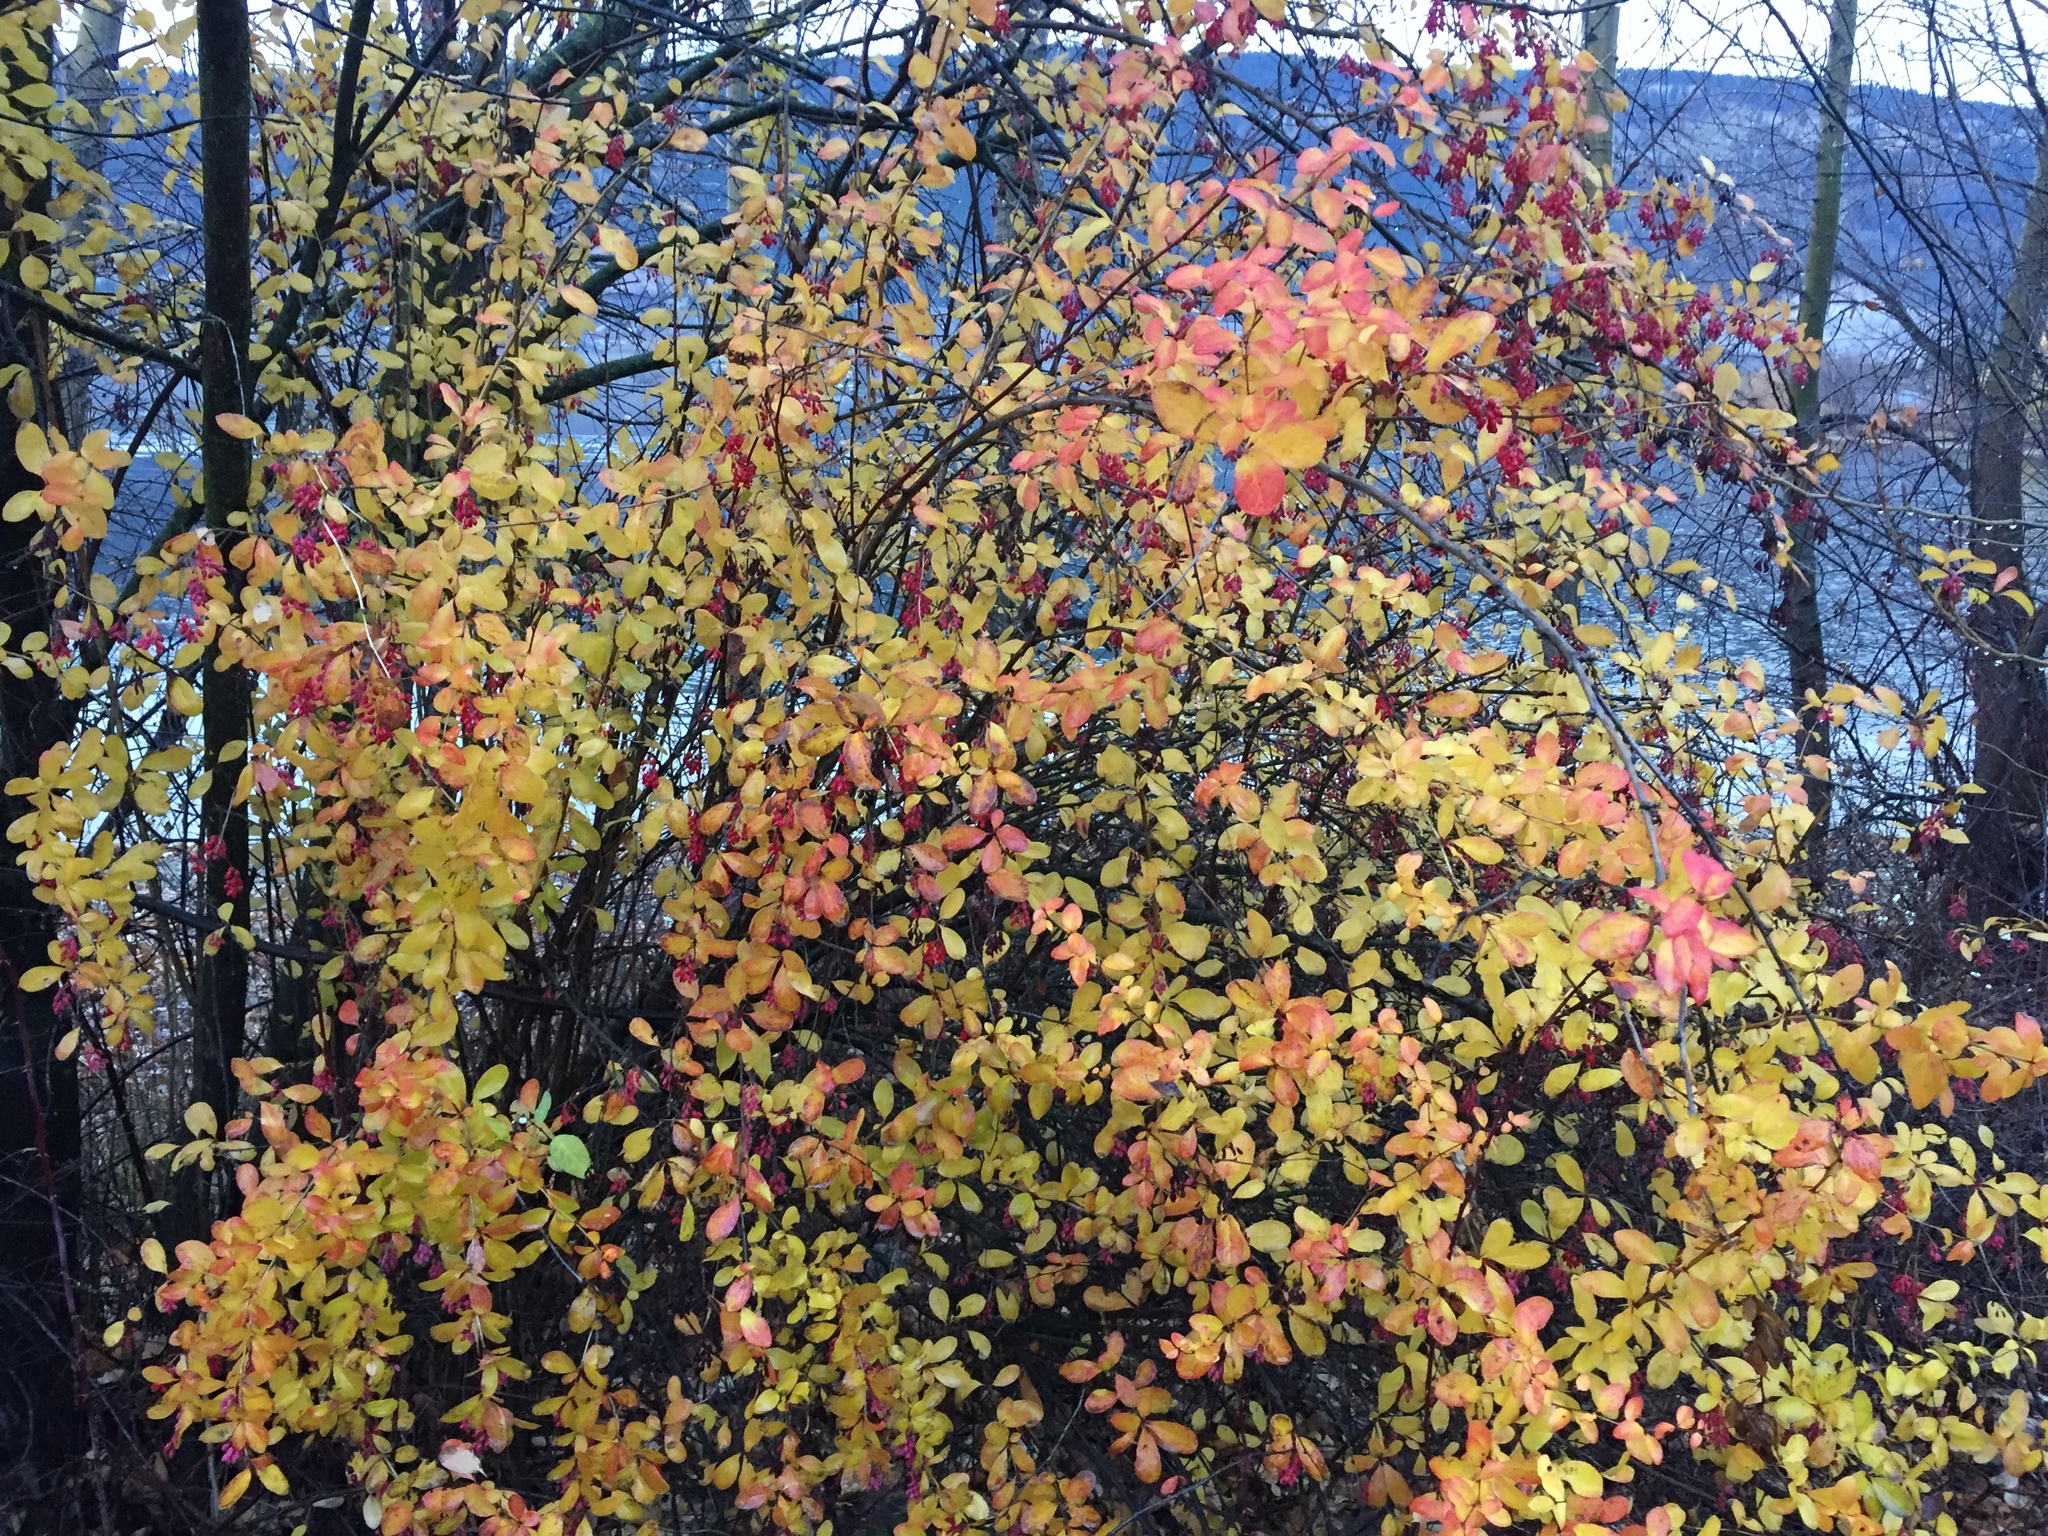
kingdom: Plantae
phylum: Tracheophyta
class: Magnoliopsida
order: Ranunculales
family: Berberidaceae
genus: Berberis
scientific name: Berberis vulgaris
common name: Barberry
